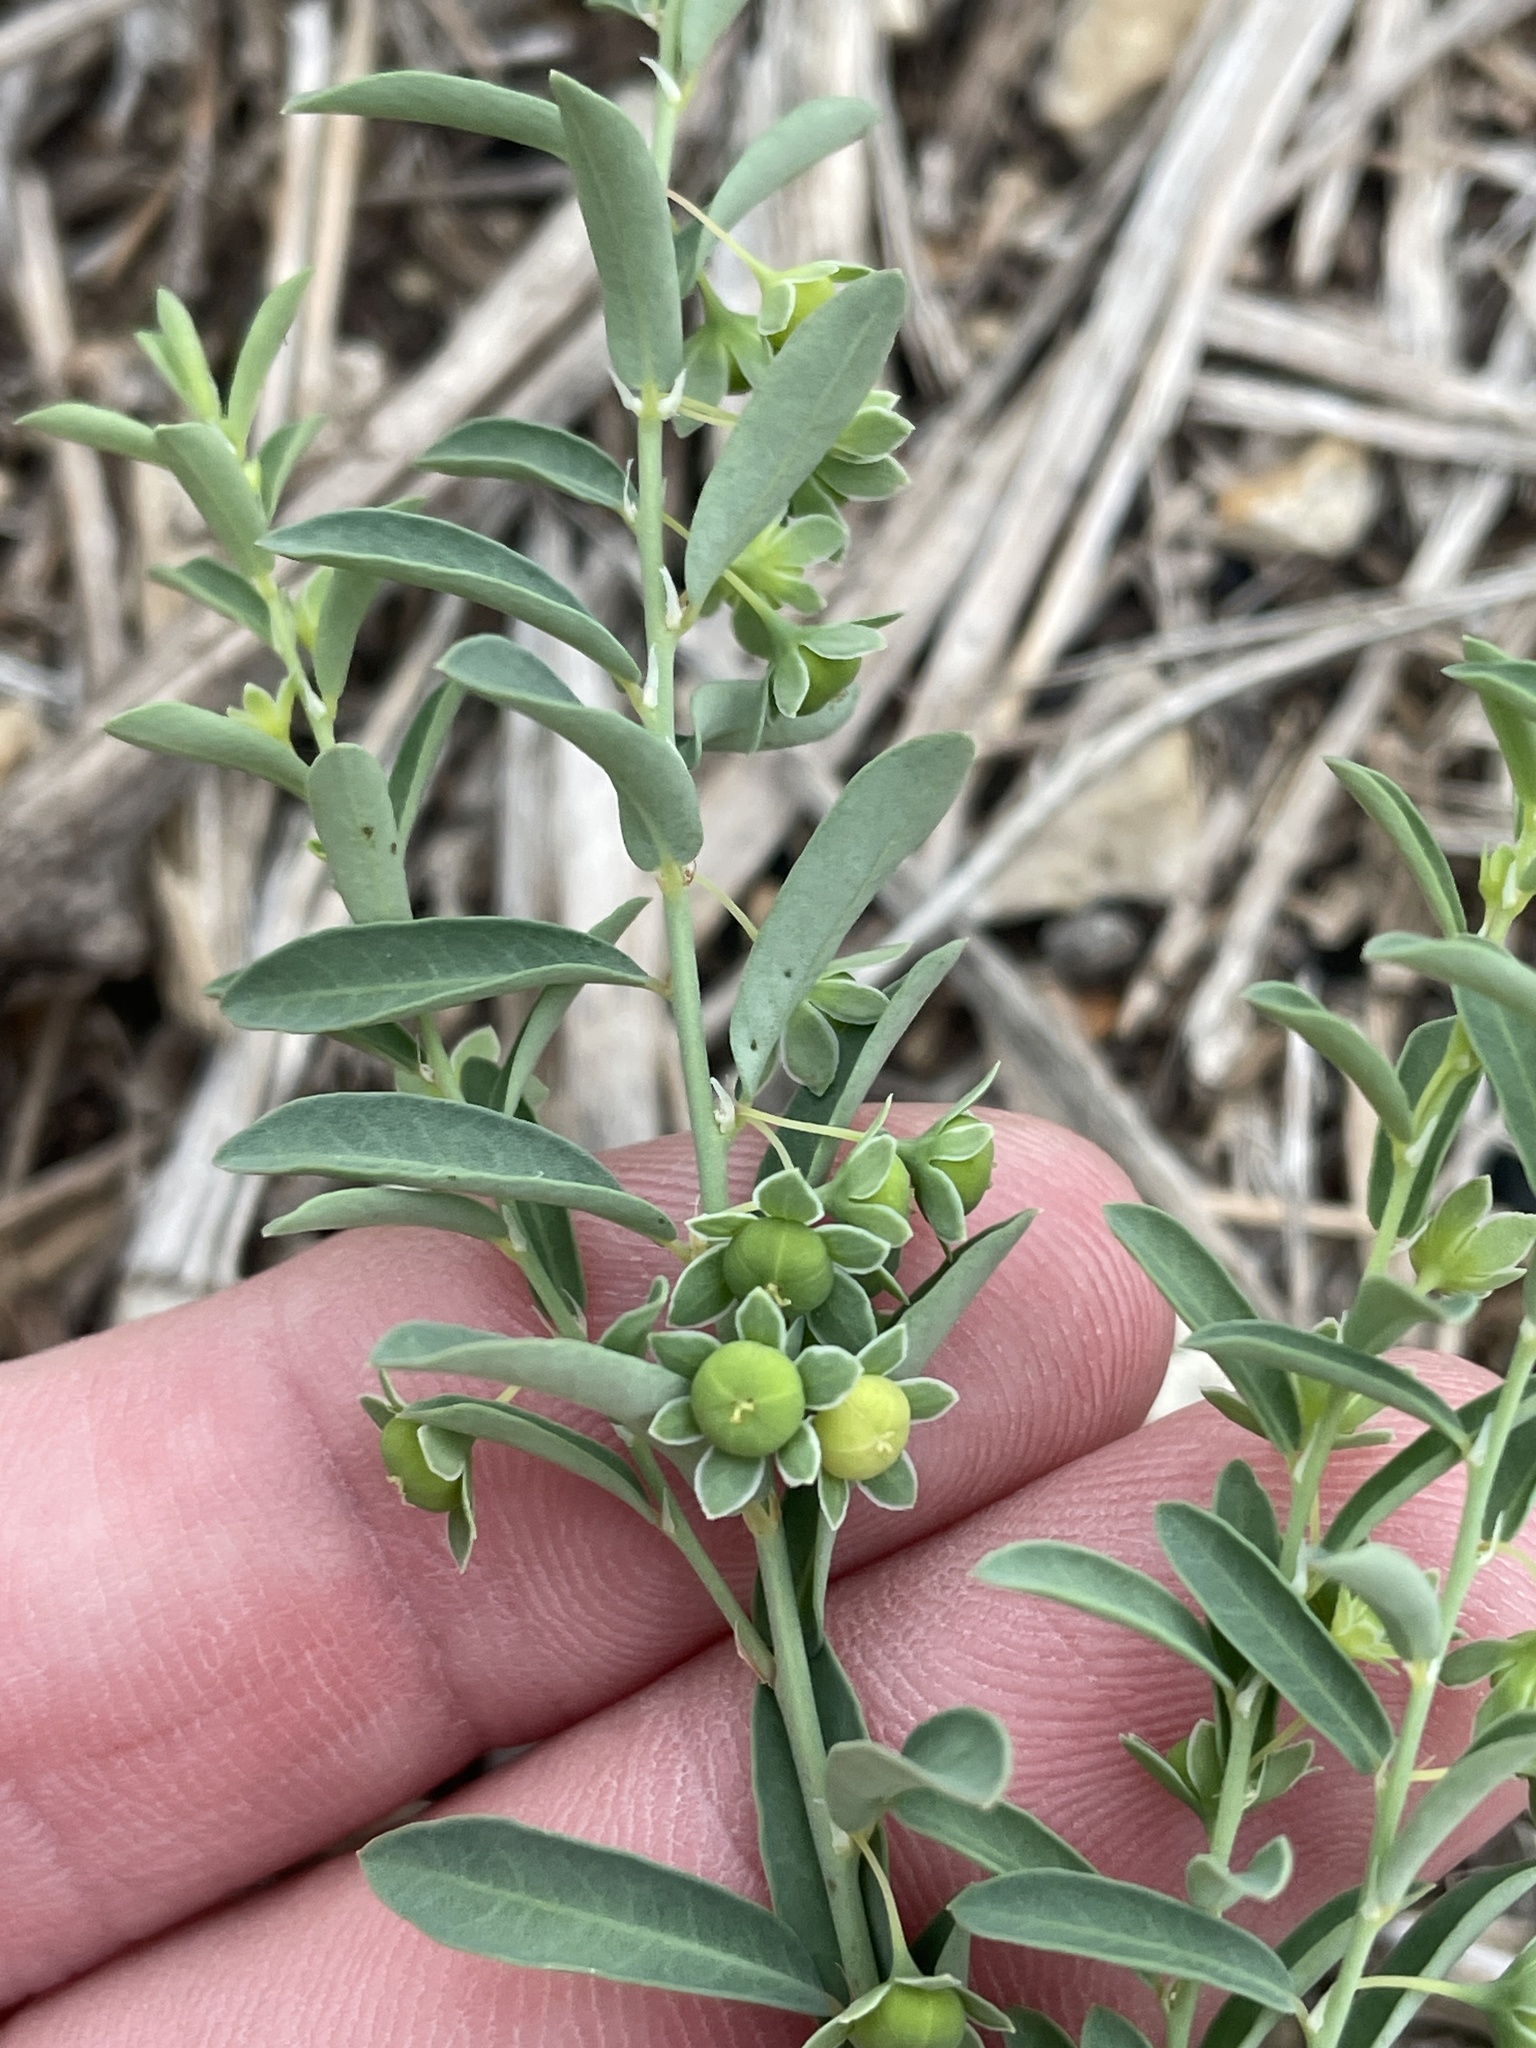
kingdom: Plantae
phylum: Tracheophyta
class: Magnoliopsida
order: Malpighiales
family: Phyllanthaceae
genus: Phyllanthus
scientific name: Phyllanthus polygonoides
